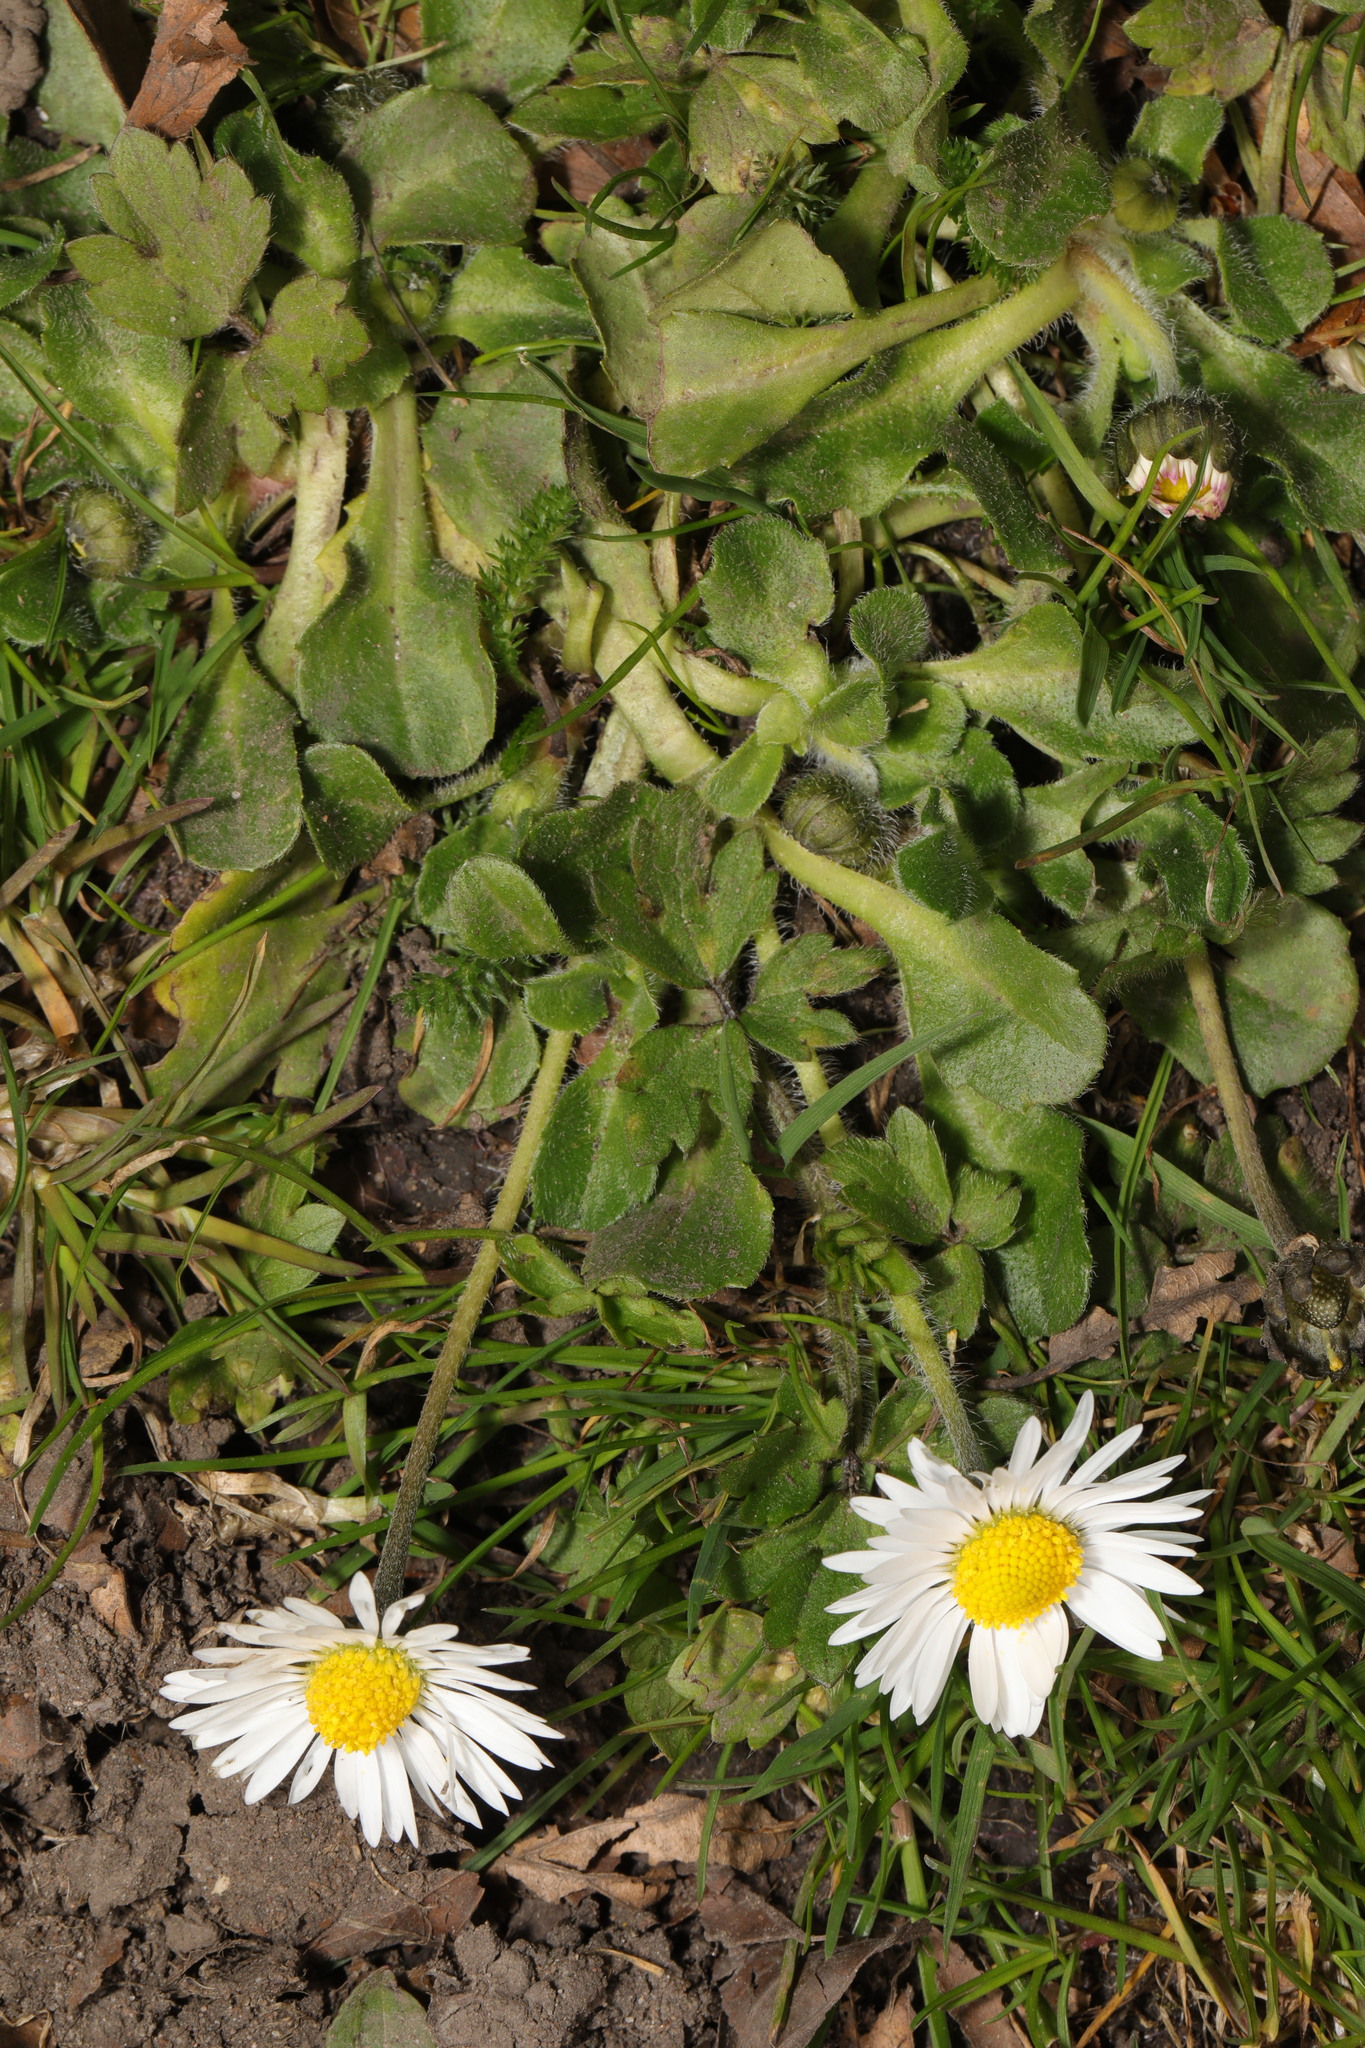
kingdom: Plantae
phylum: Tracheophyta
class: Magnoliopsida
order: Asterales
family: Asteraceae
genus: Bellis
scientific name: Bellis perennis
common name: Lawndaisy
